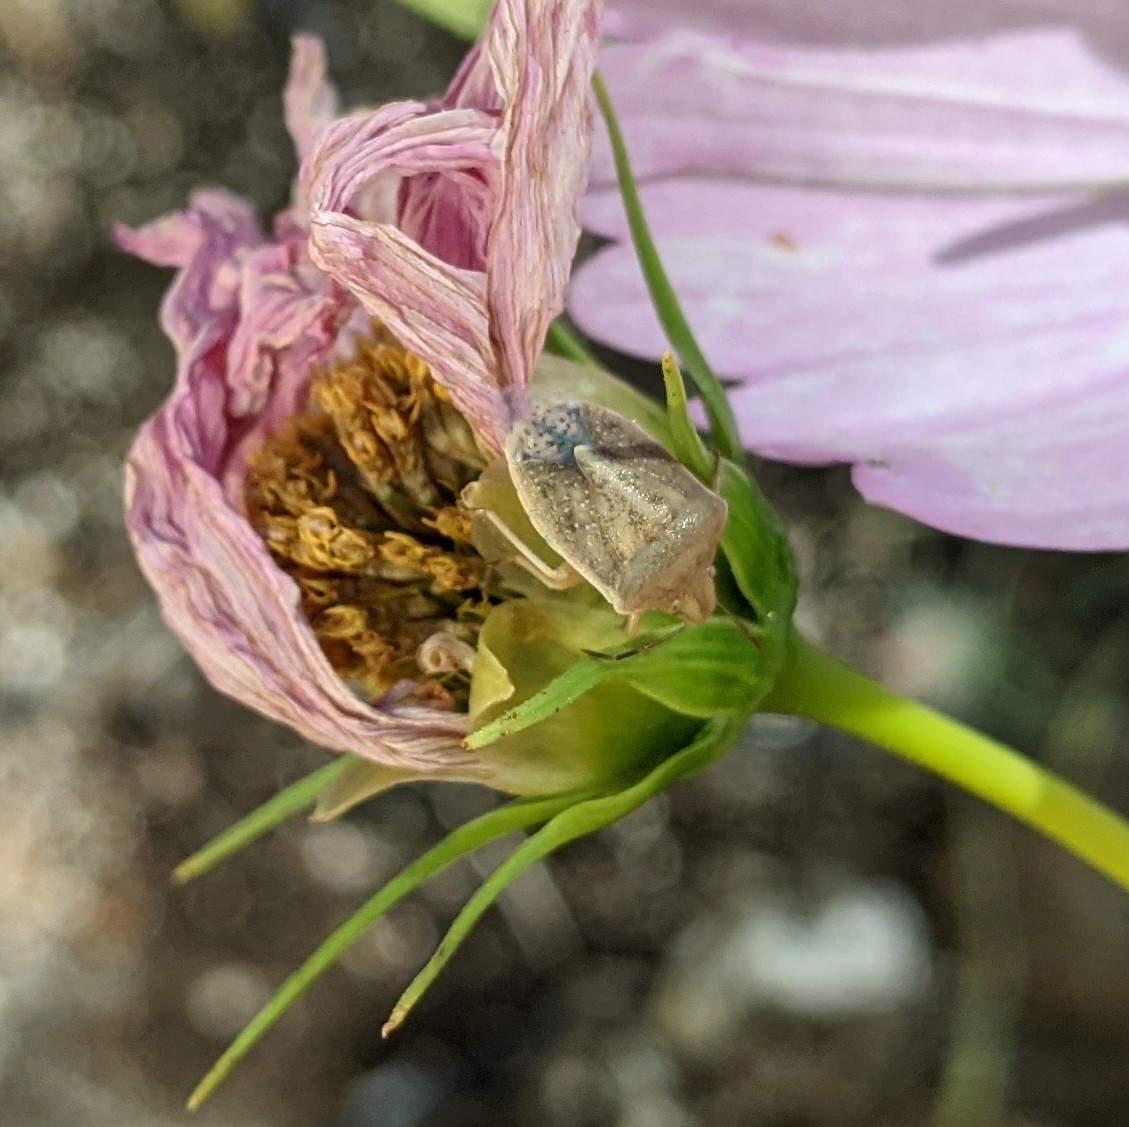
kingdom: Animalia
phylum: Arthropoda
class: Insecta
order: Hemiptera
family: Pentatomidae
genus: Thyanta
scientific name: Thyanta accerra
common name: Stink bug
